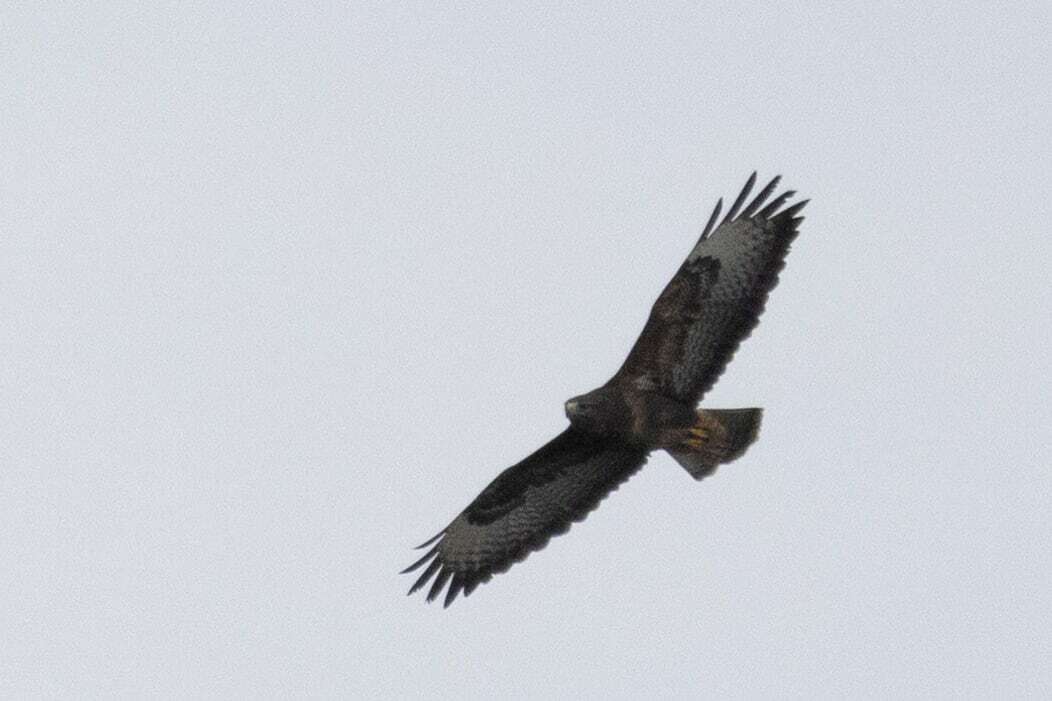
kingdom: Animalia
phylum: Chordata
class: Aves
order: Accipitriformes
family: Accipitridae
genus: Buteo
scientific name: Buteo buteo
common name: Common buzzard
